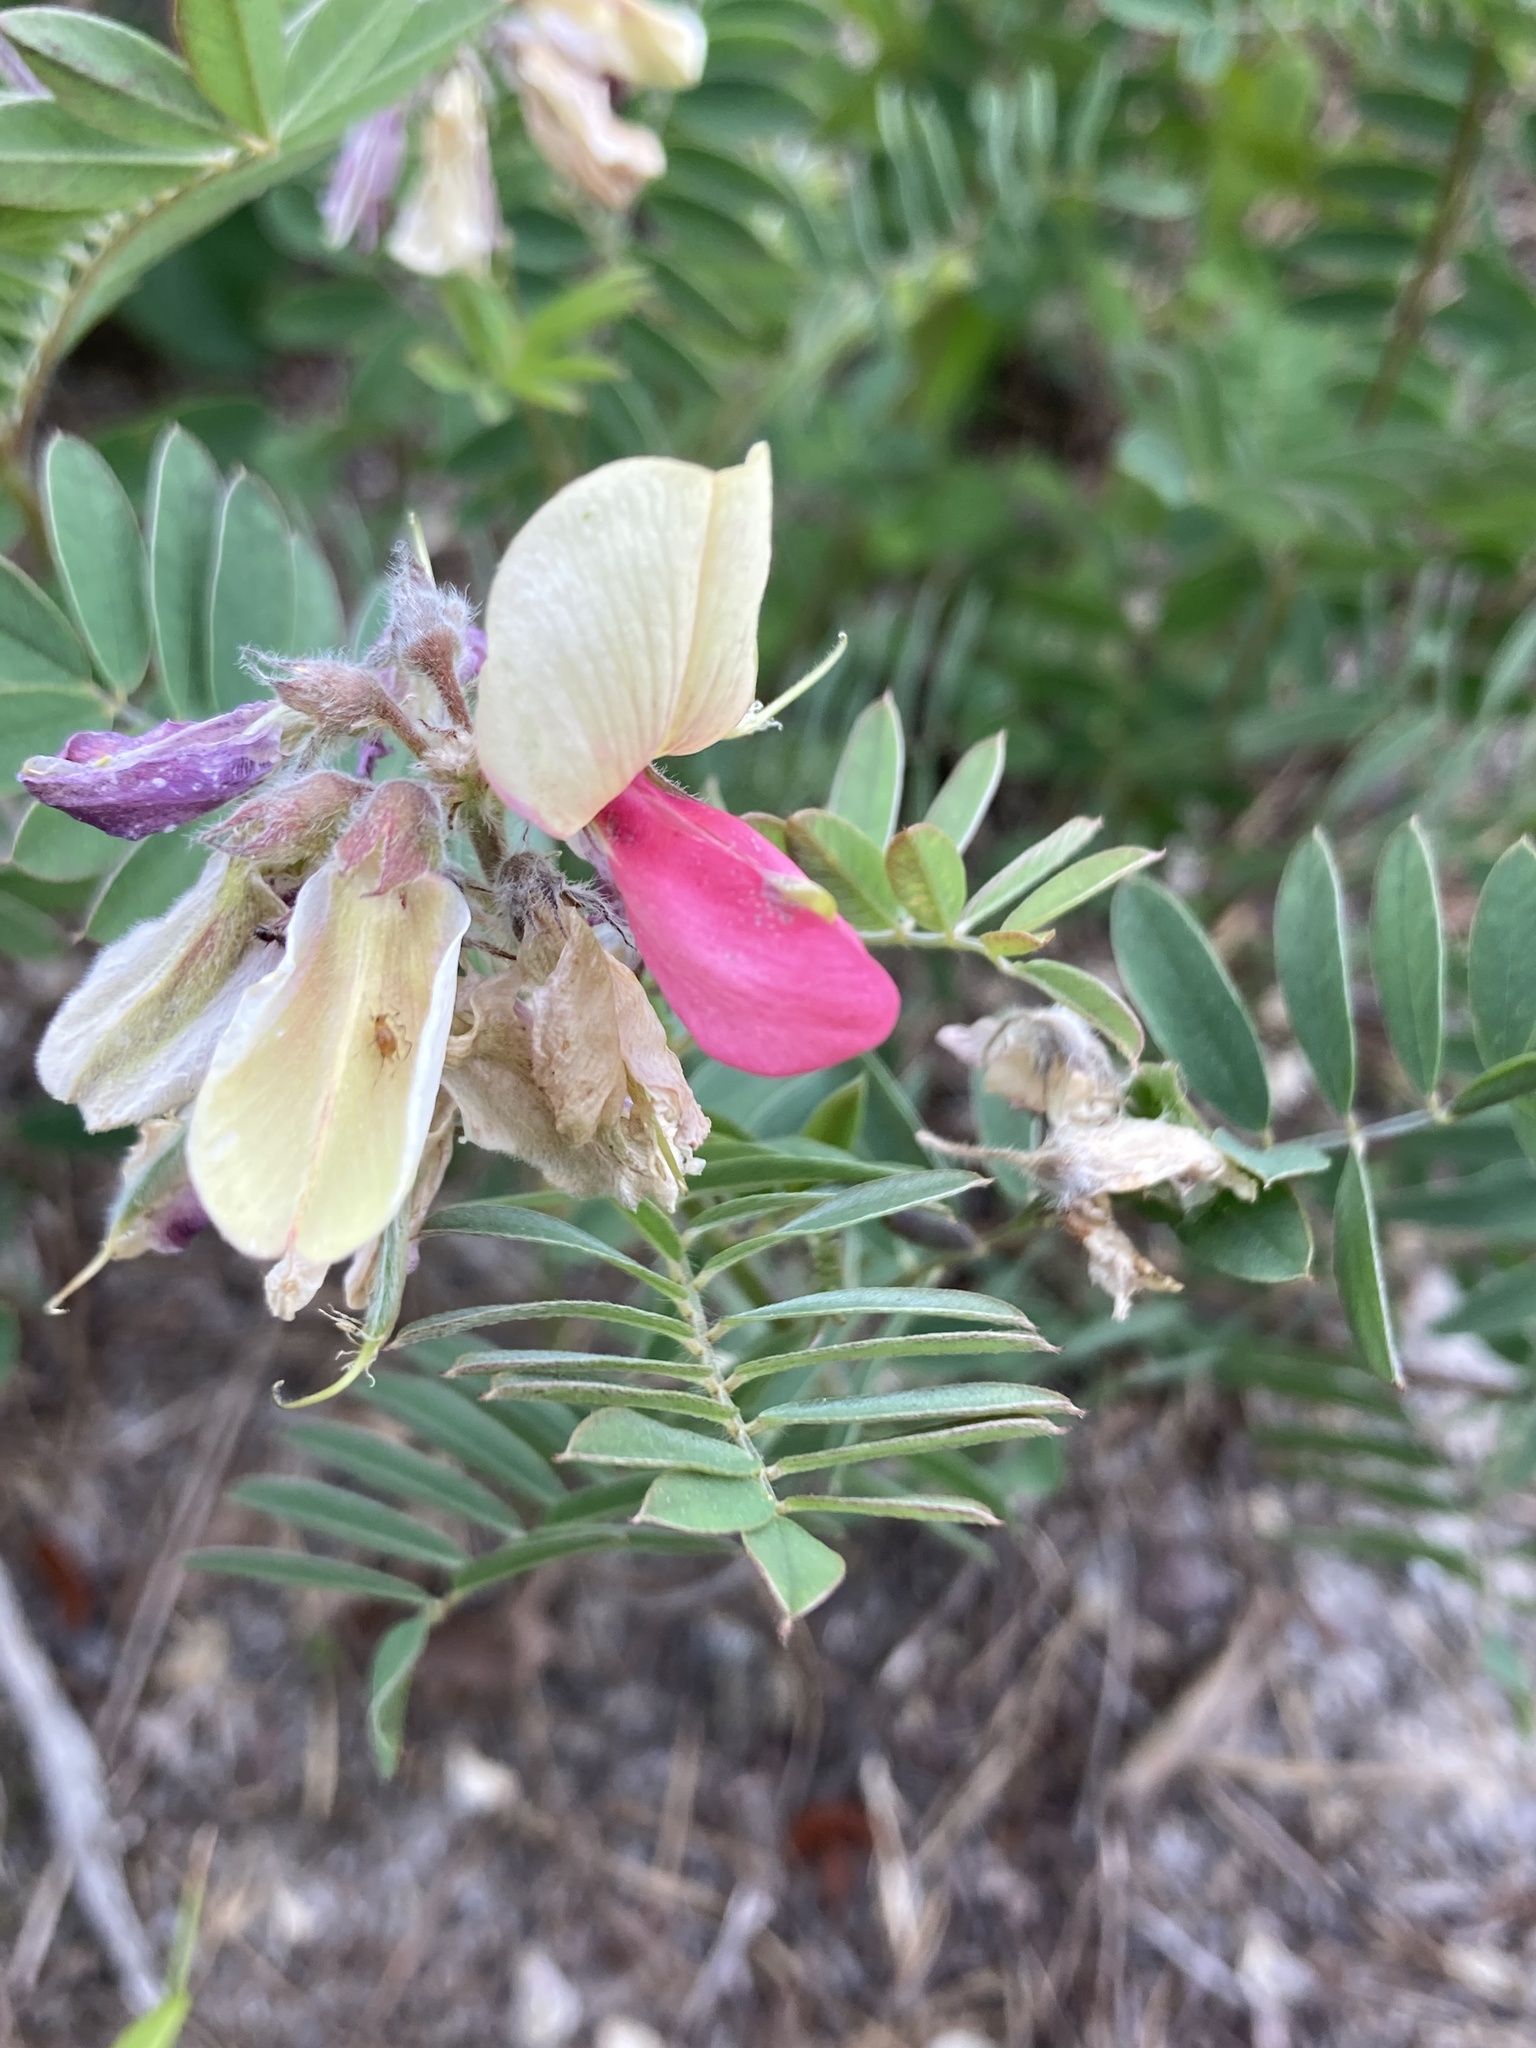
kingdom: Plantae
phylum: Tracheophyta
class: Magnoliopsida
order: Fabales
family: Fabaceae
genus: Tephrosia
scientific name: Tephrosia virginiana
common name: Rabbit-pea
